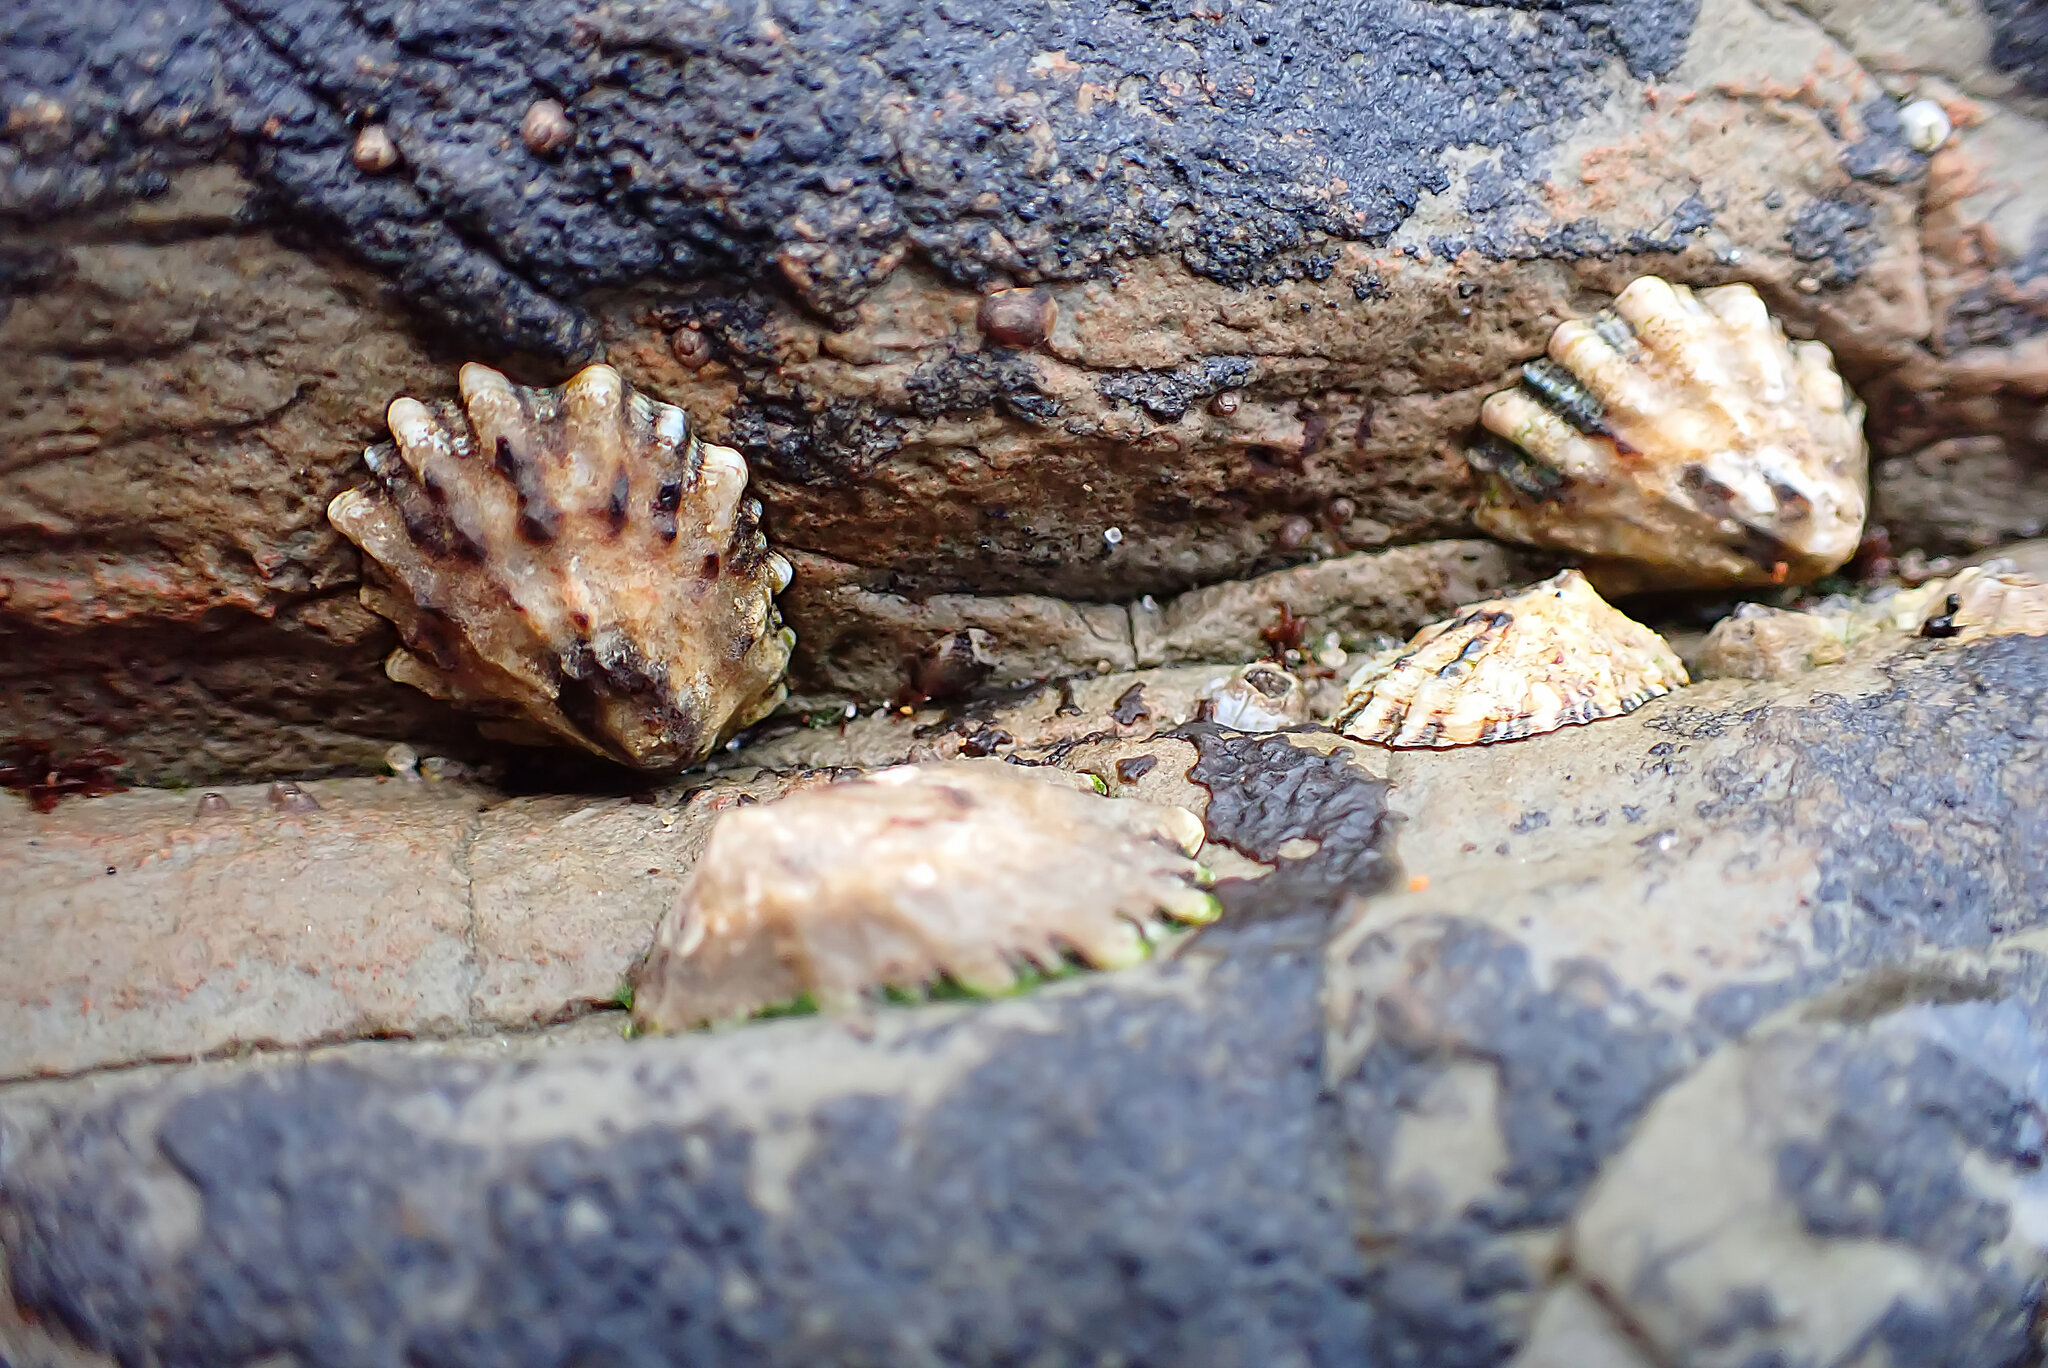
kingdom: Animalia
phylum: Mollusca
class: Gastropoda
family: Lottiidae
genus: Lottia
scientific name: Lottia scabra
